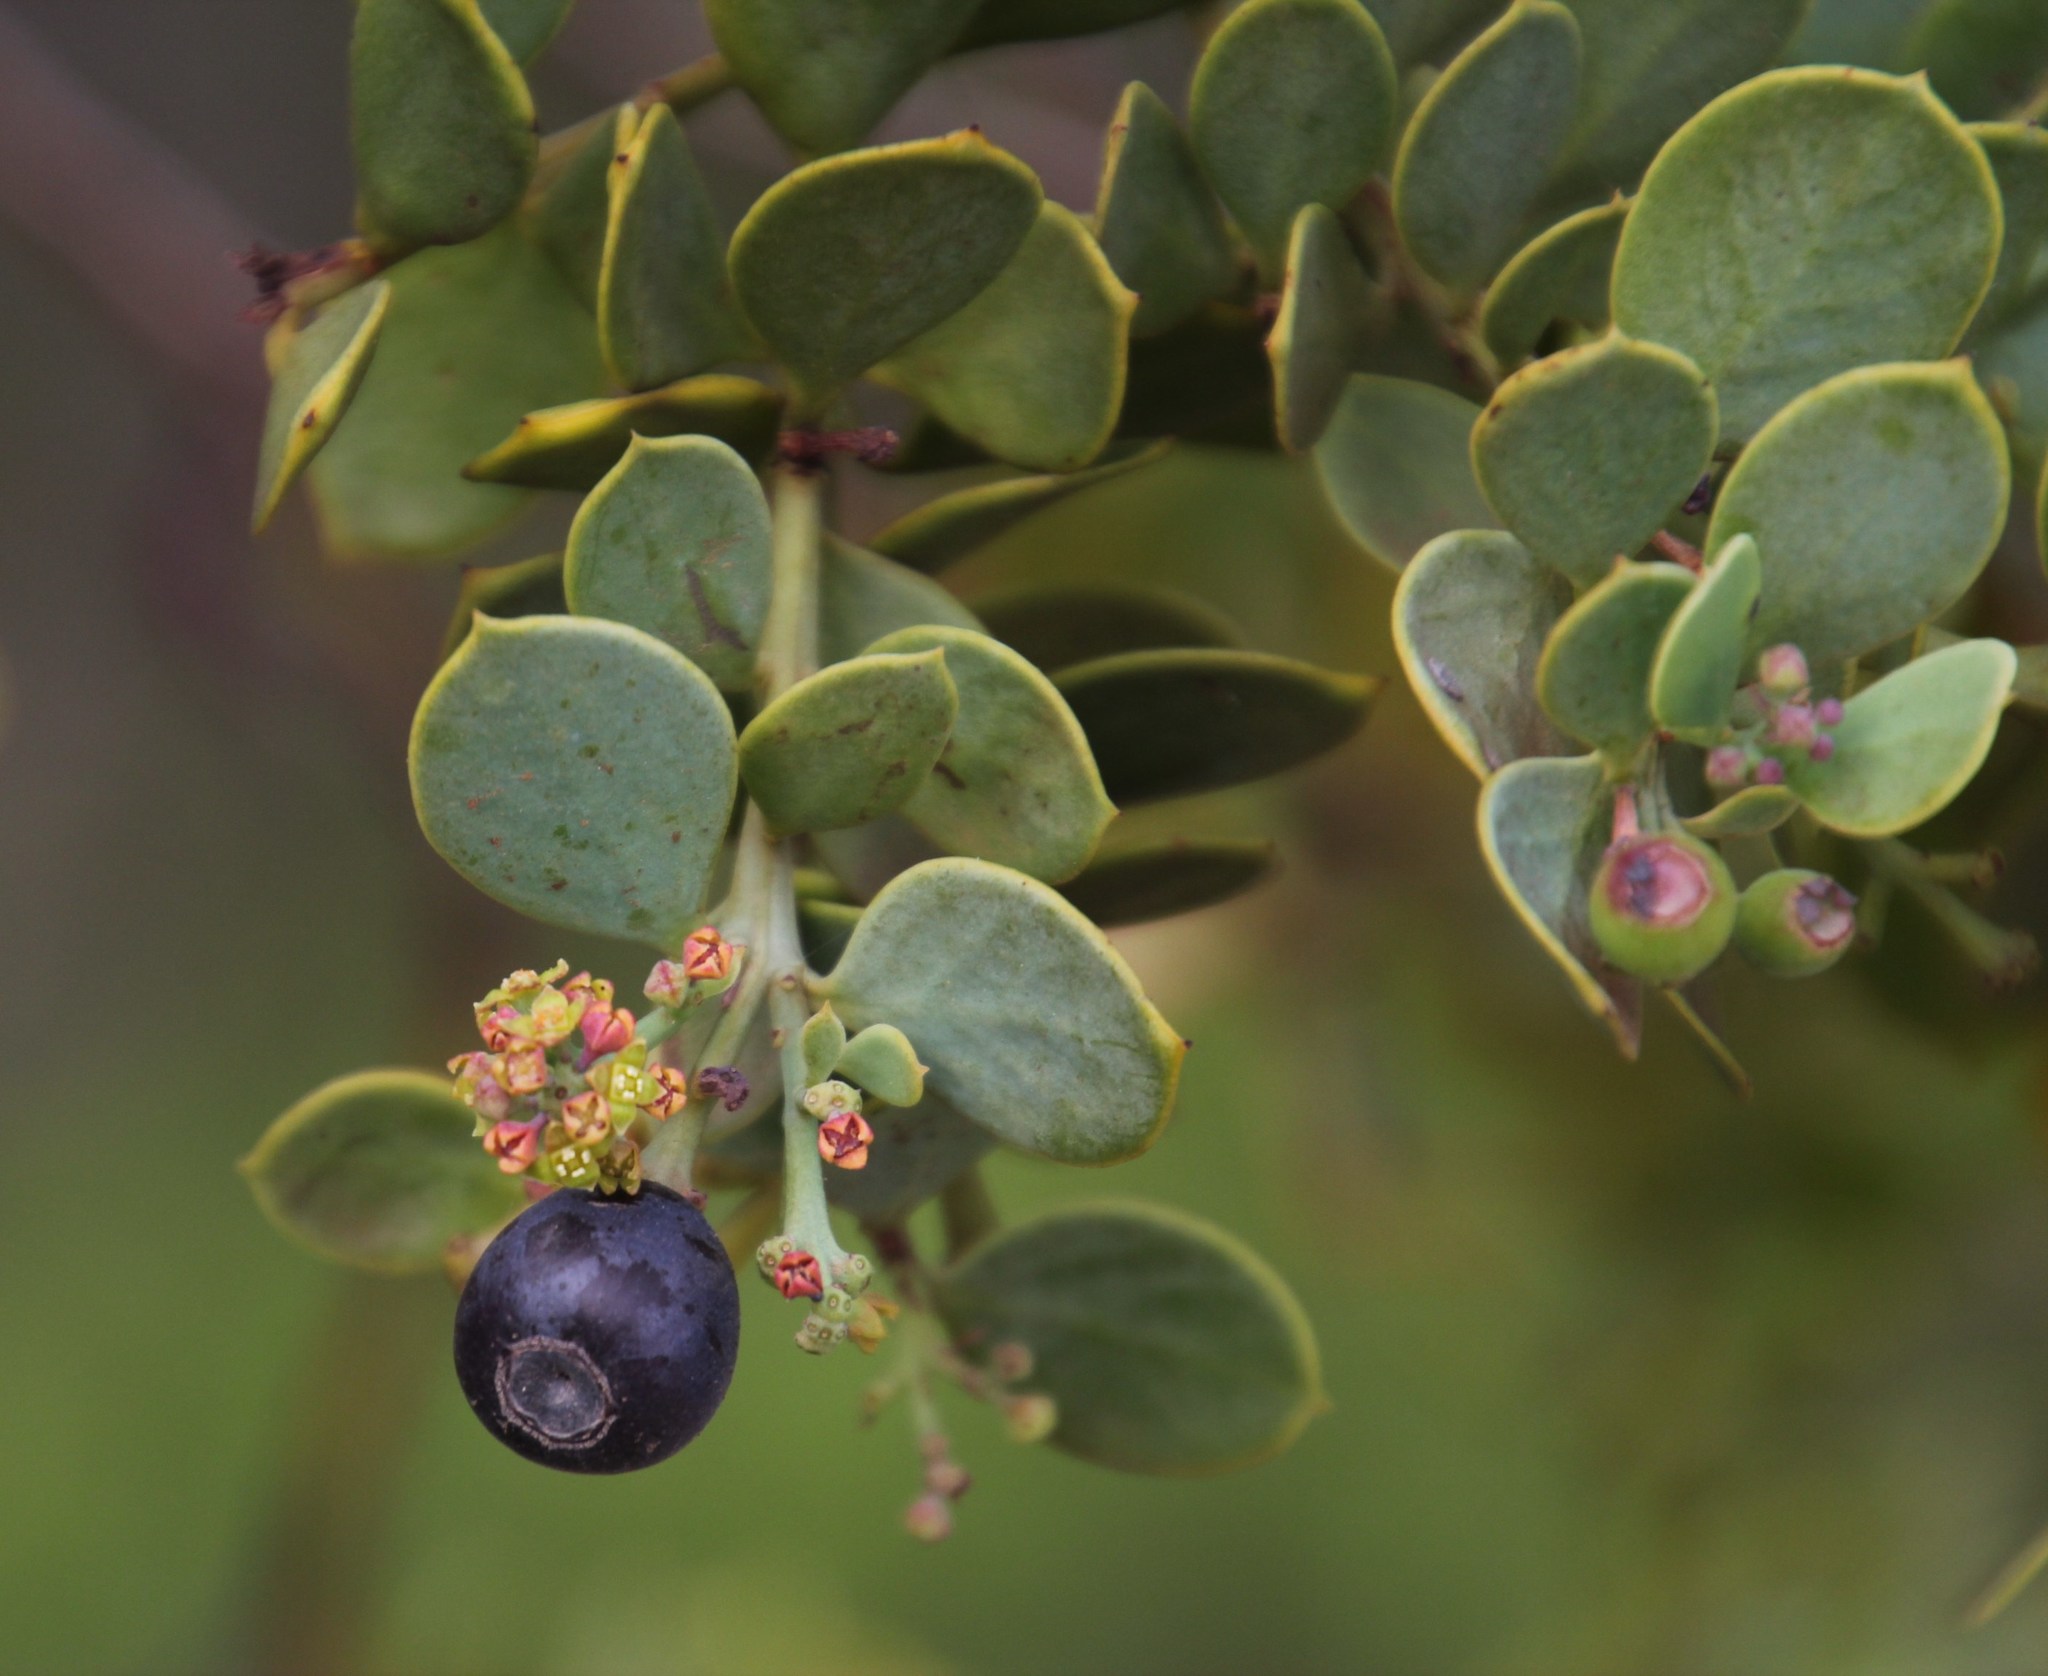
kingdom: Plantae
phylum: Tracheophyta
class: Magnoliopsida
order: Santalales
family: Santalaceae
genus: Osyris
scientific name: Osyris compressa
